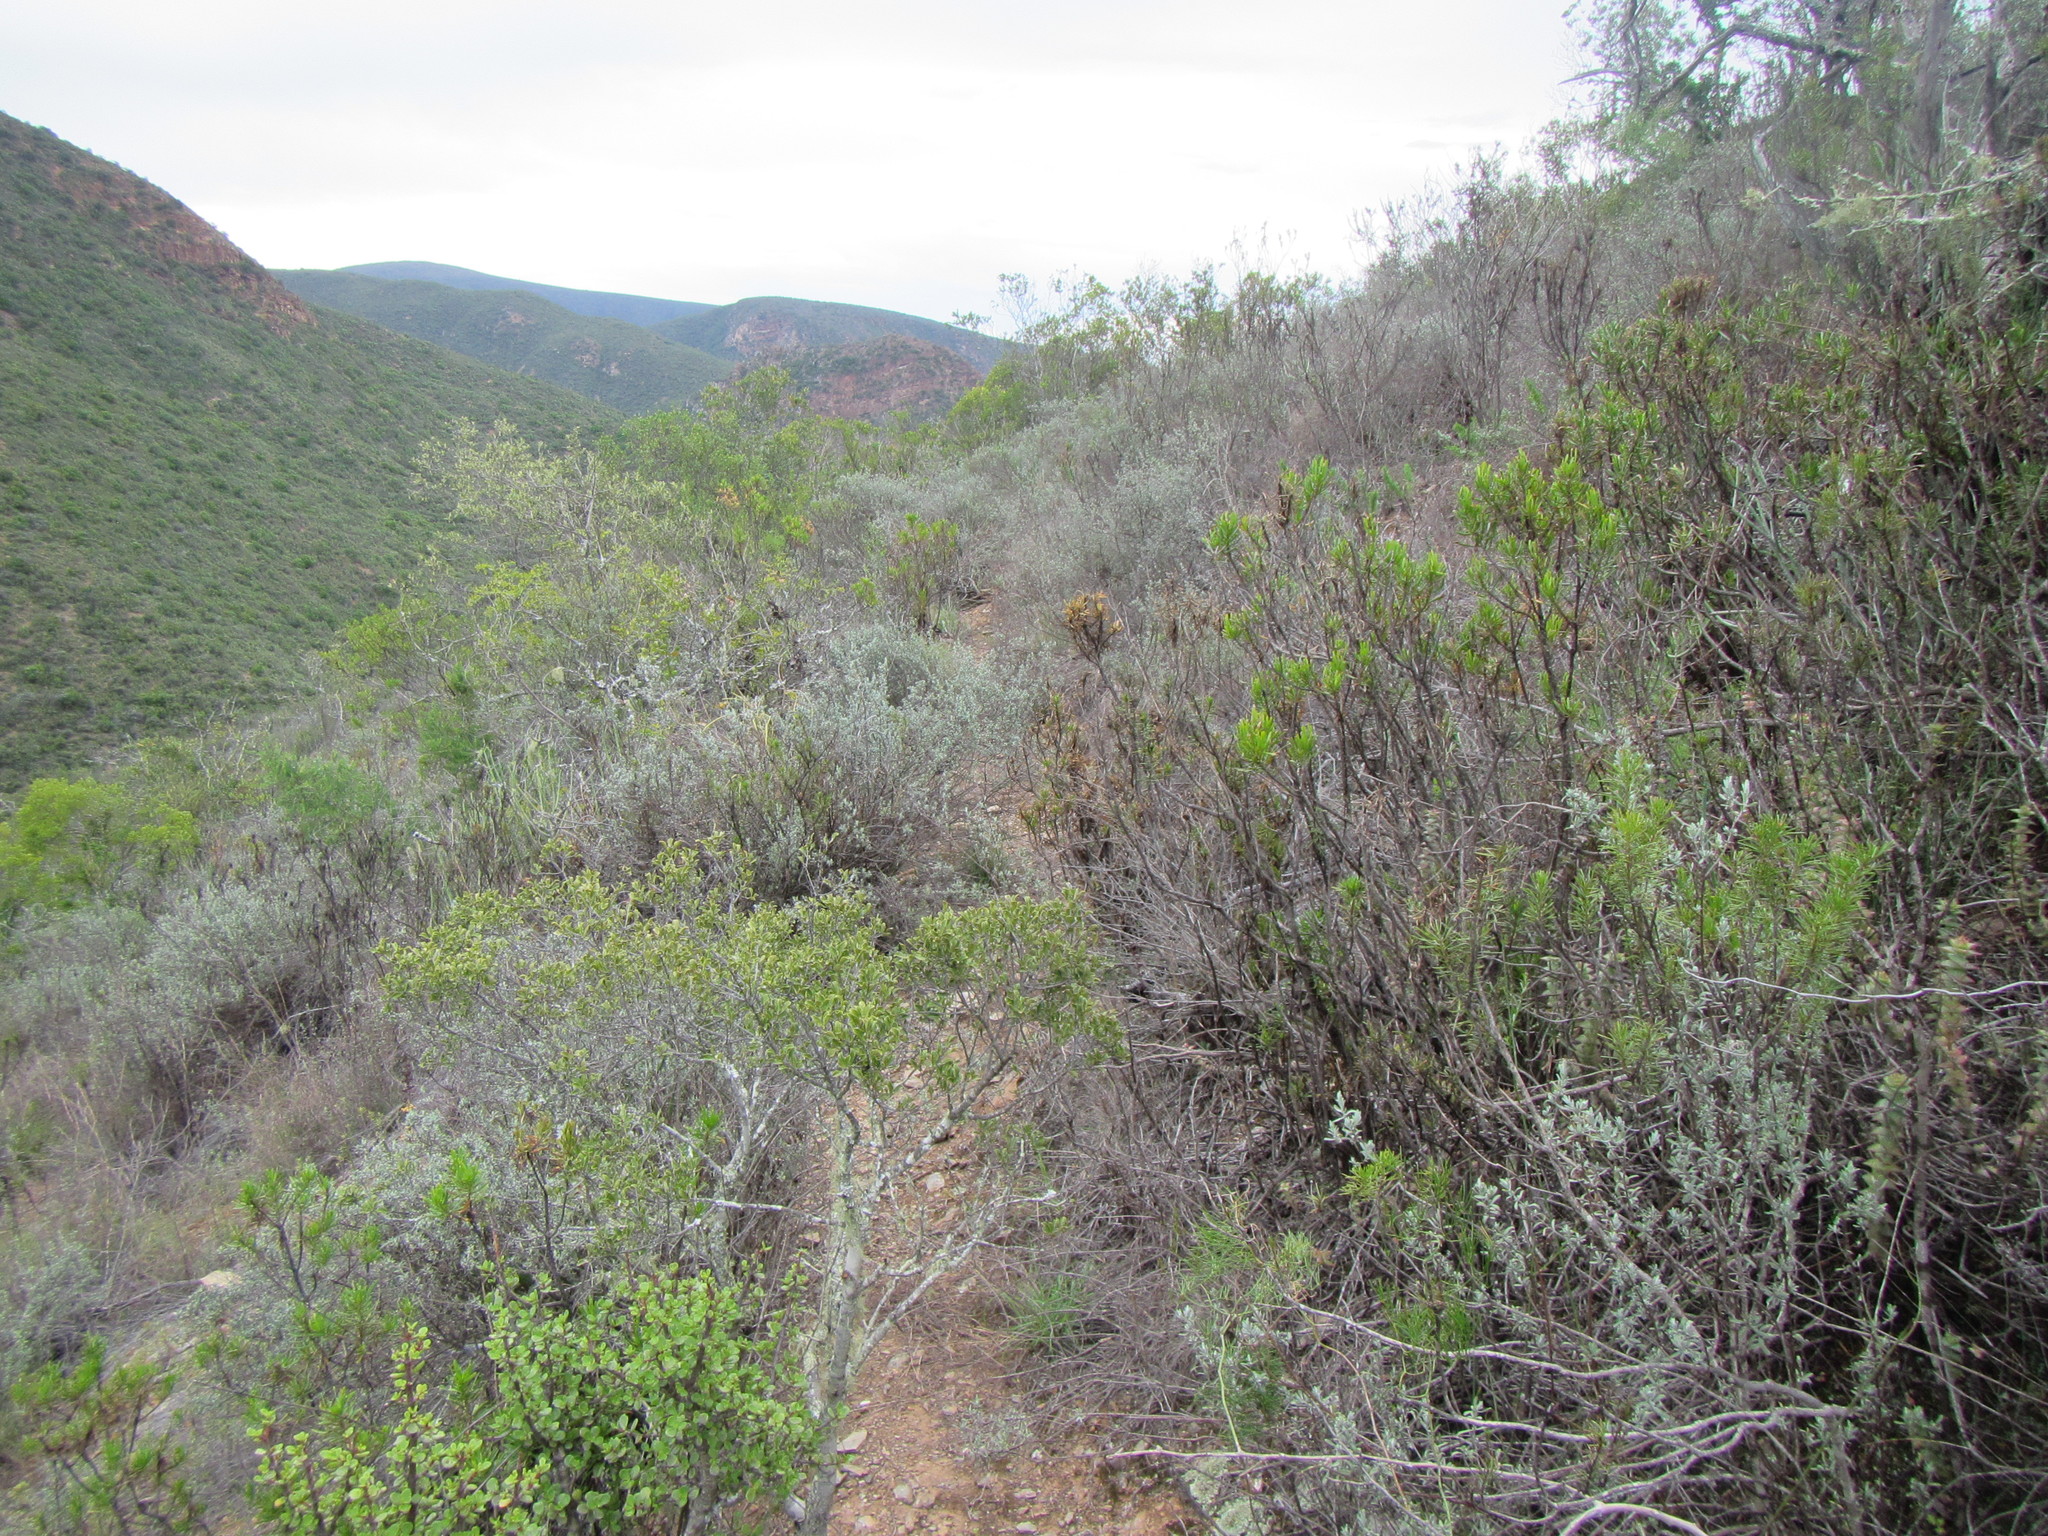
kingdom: Plantae
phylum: Tracheophyta
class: Magnoliopsida
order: Asterales
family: Asteraceae
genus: Pteronia
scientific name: Pteronia incana
